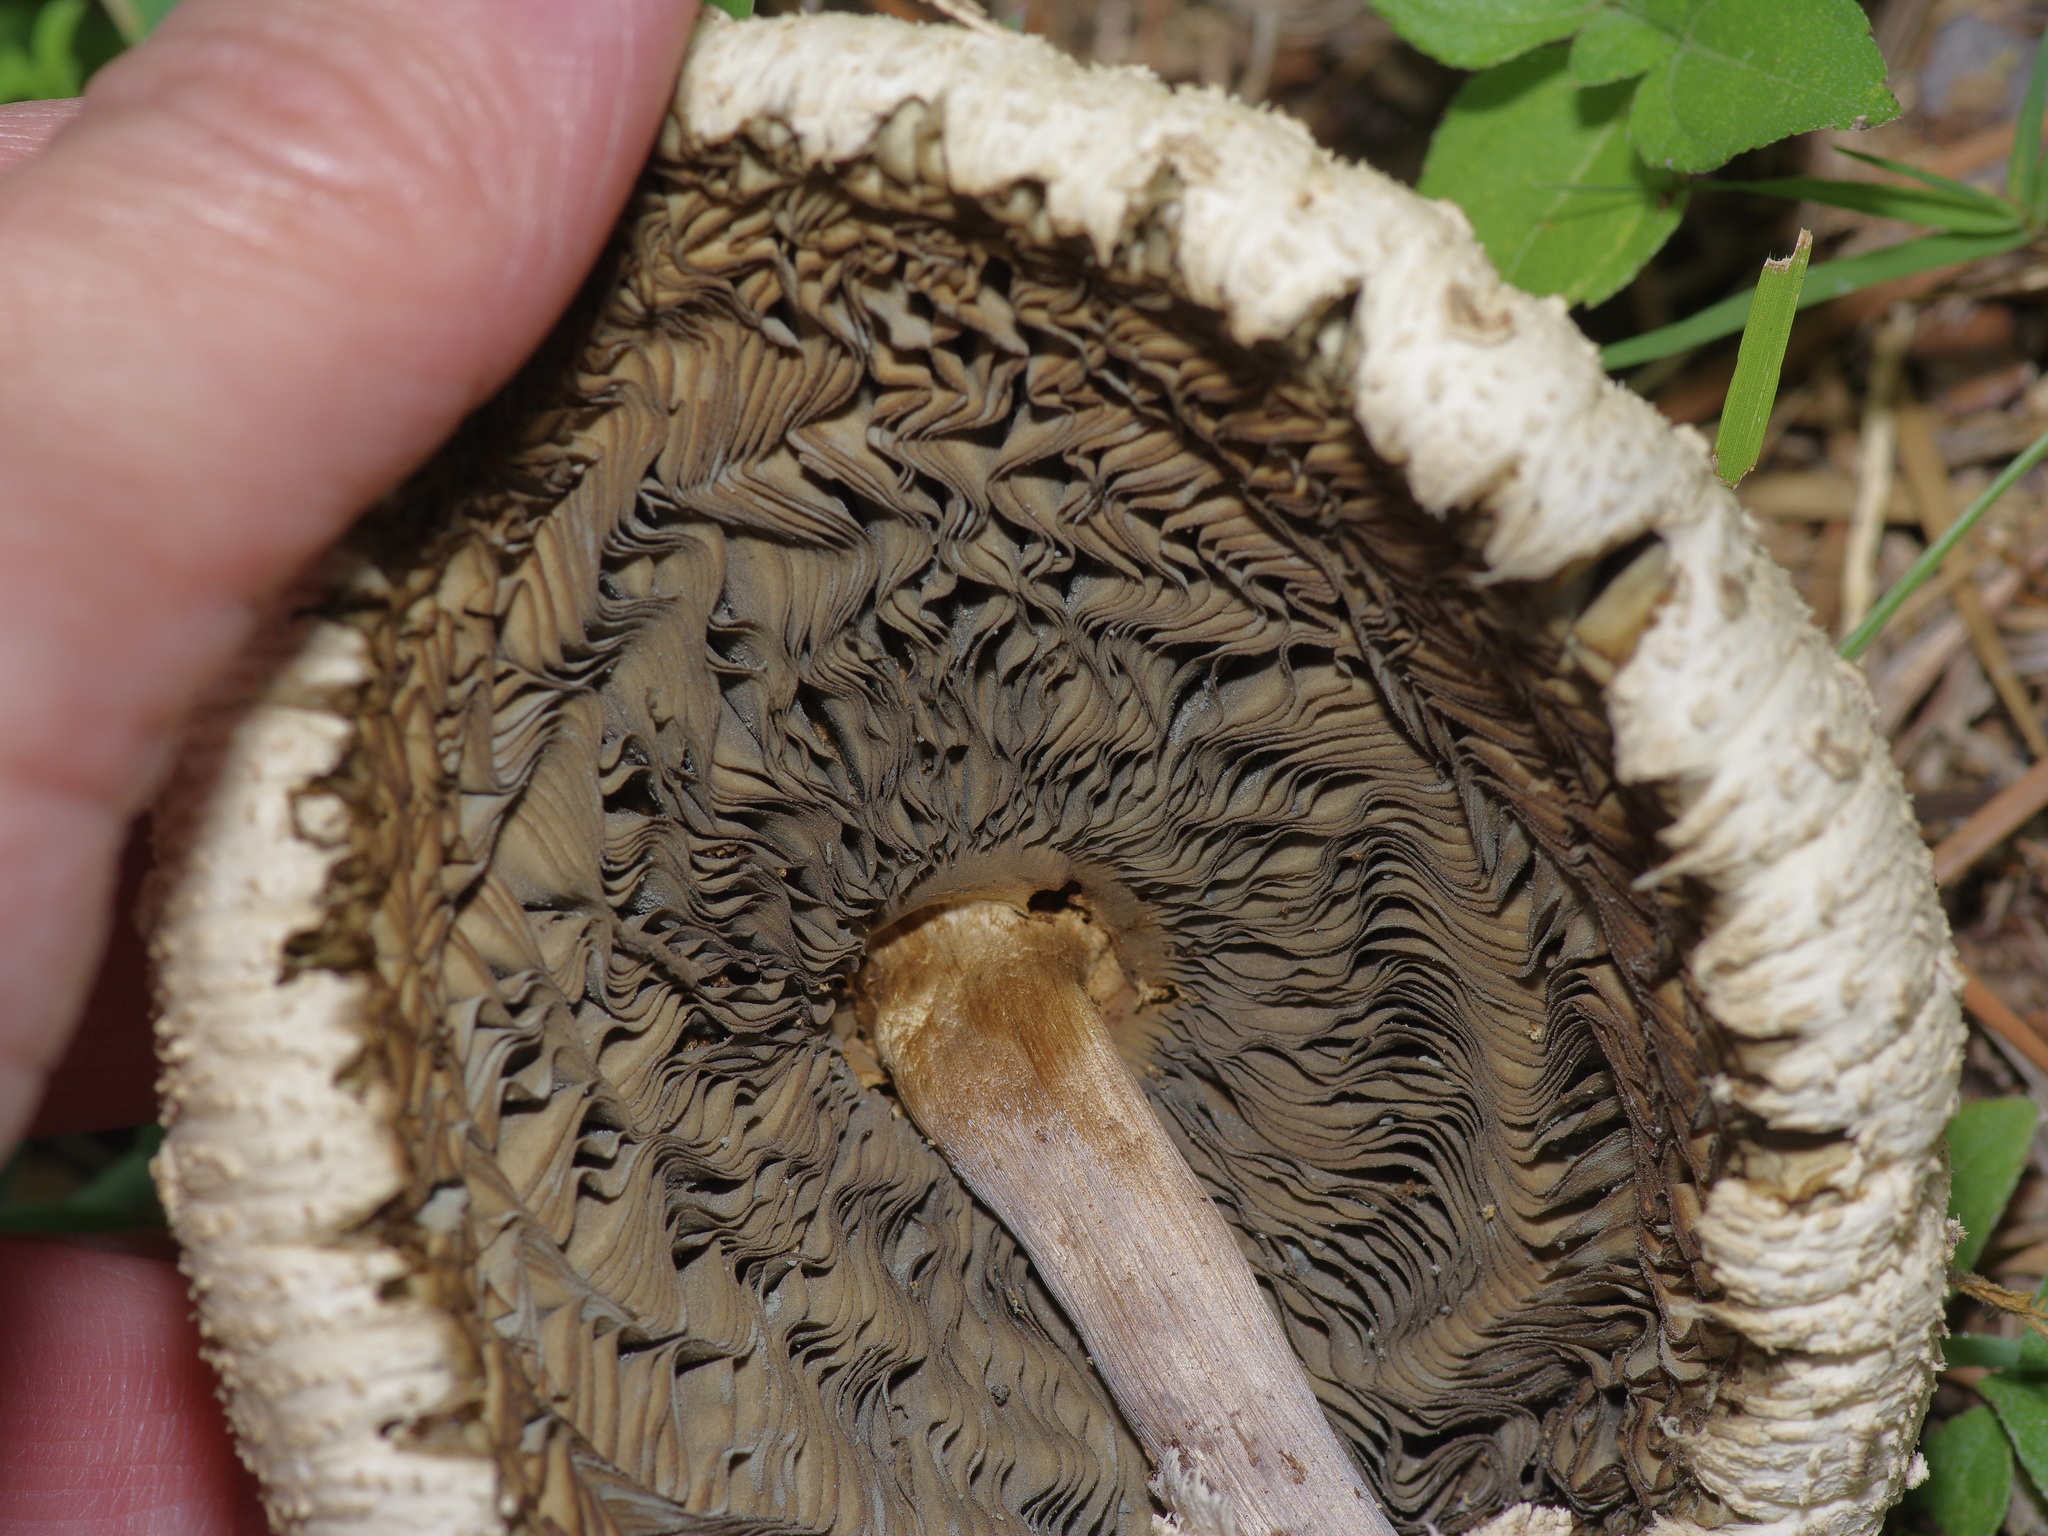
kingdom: Fungi
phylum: Basidiomycota
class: Agaricomycetes
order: Agaricales
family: Agaricaceae
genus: Chlorophyllum
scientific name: Chlorophyllum molybdites
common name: False parasol
